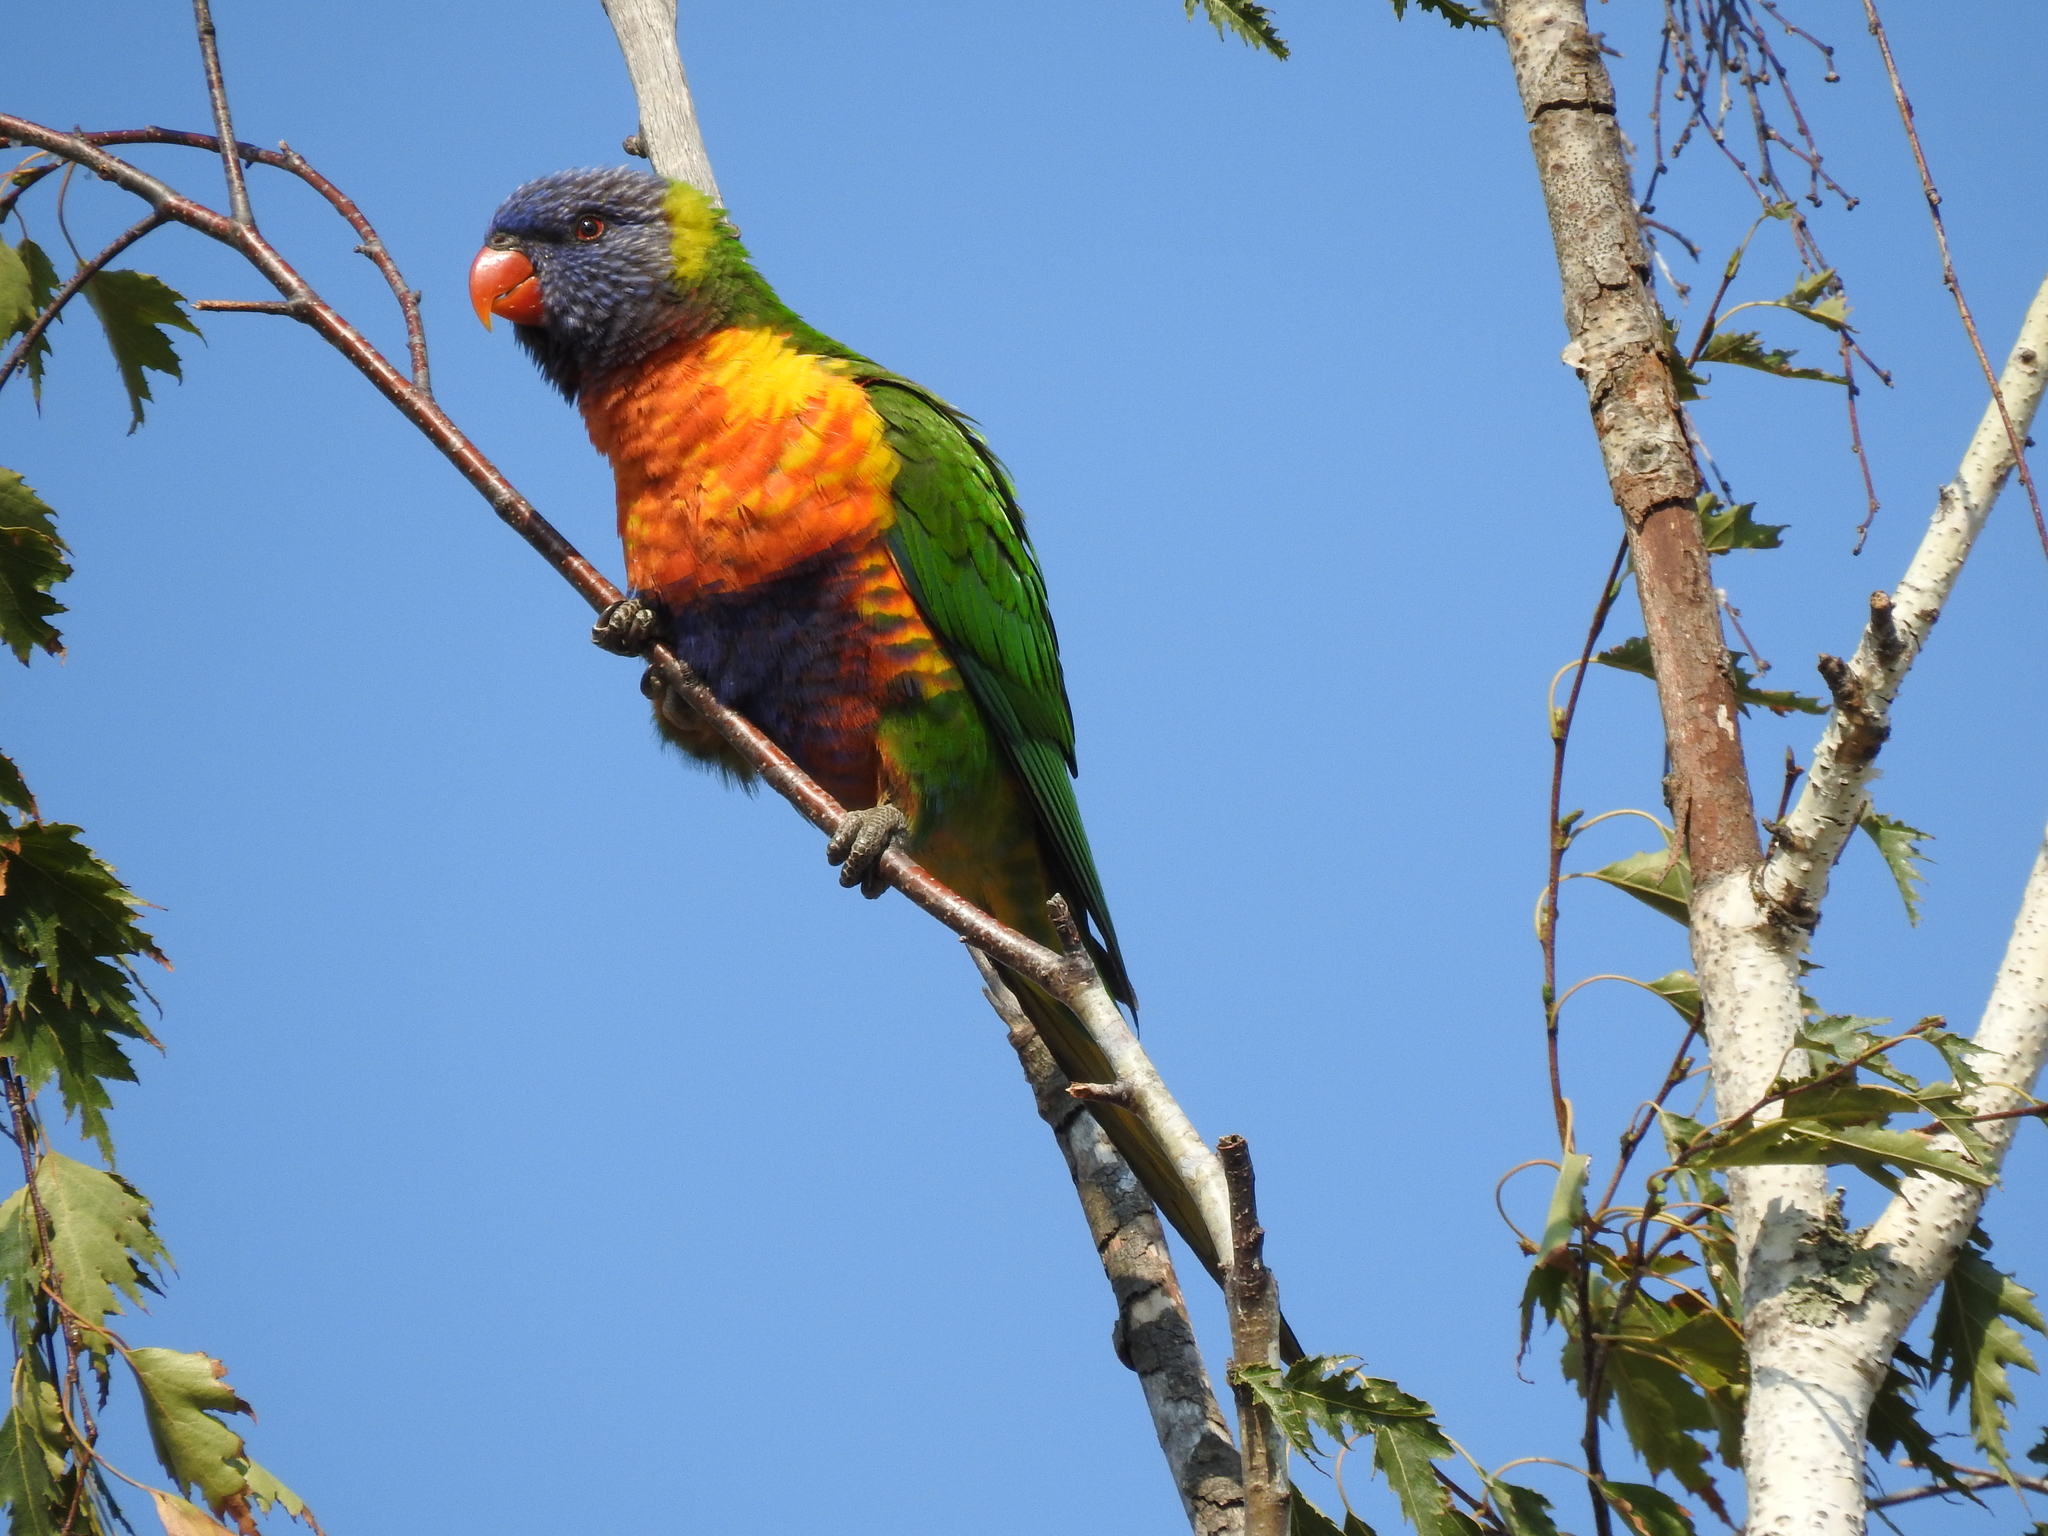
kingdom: Animalia
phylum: Chordata
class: Aves
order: Psittaciformes
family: Psittacidae
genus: Trichoglossus
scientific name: Trichoglossus haematodus
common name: Coconut lorikeet
